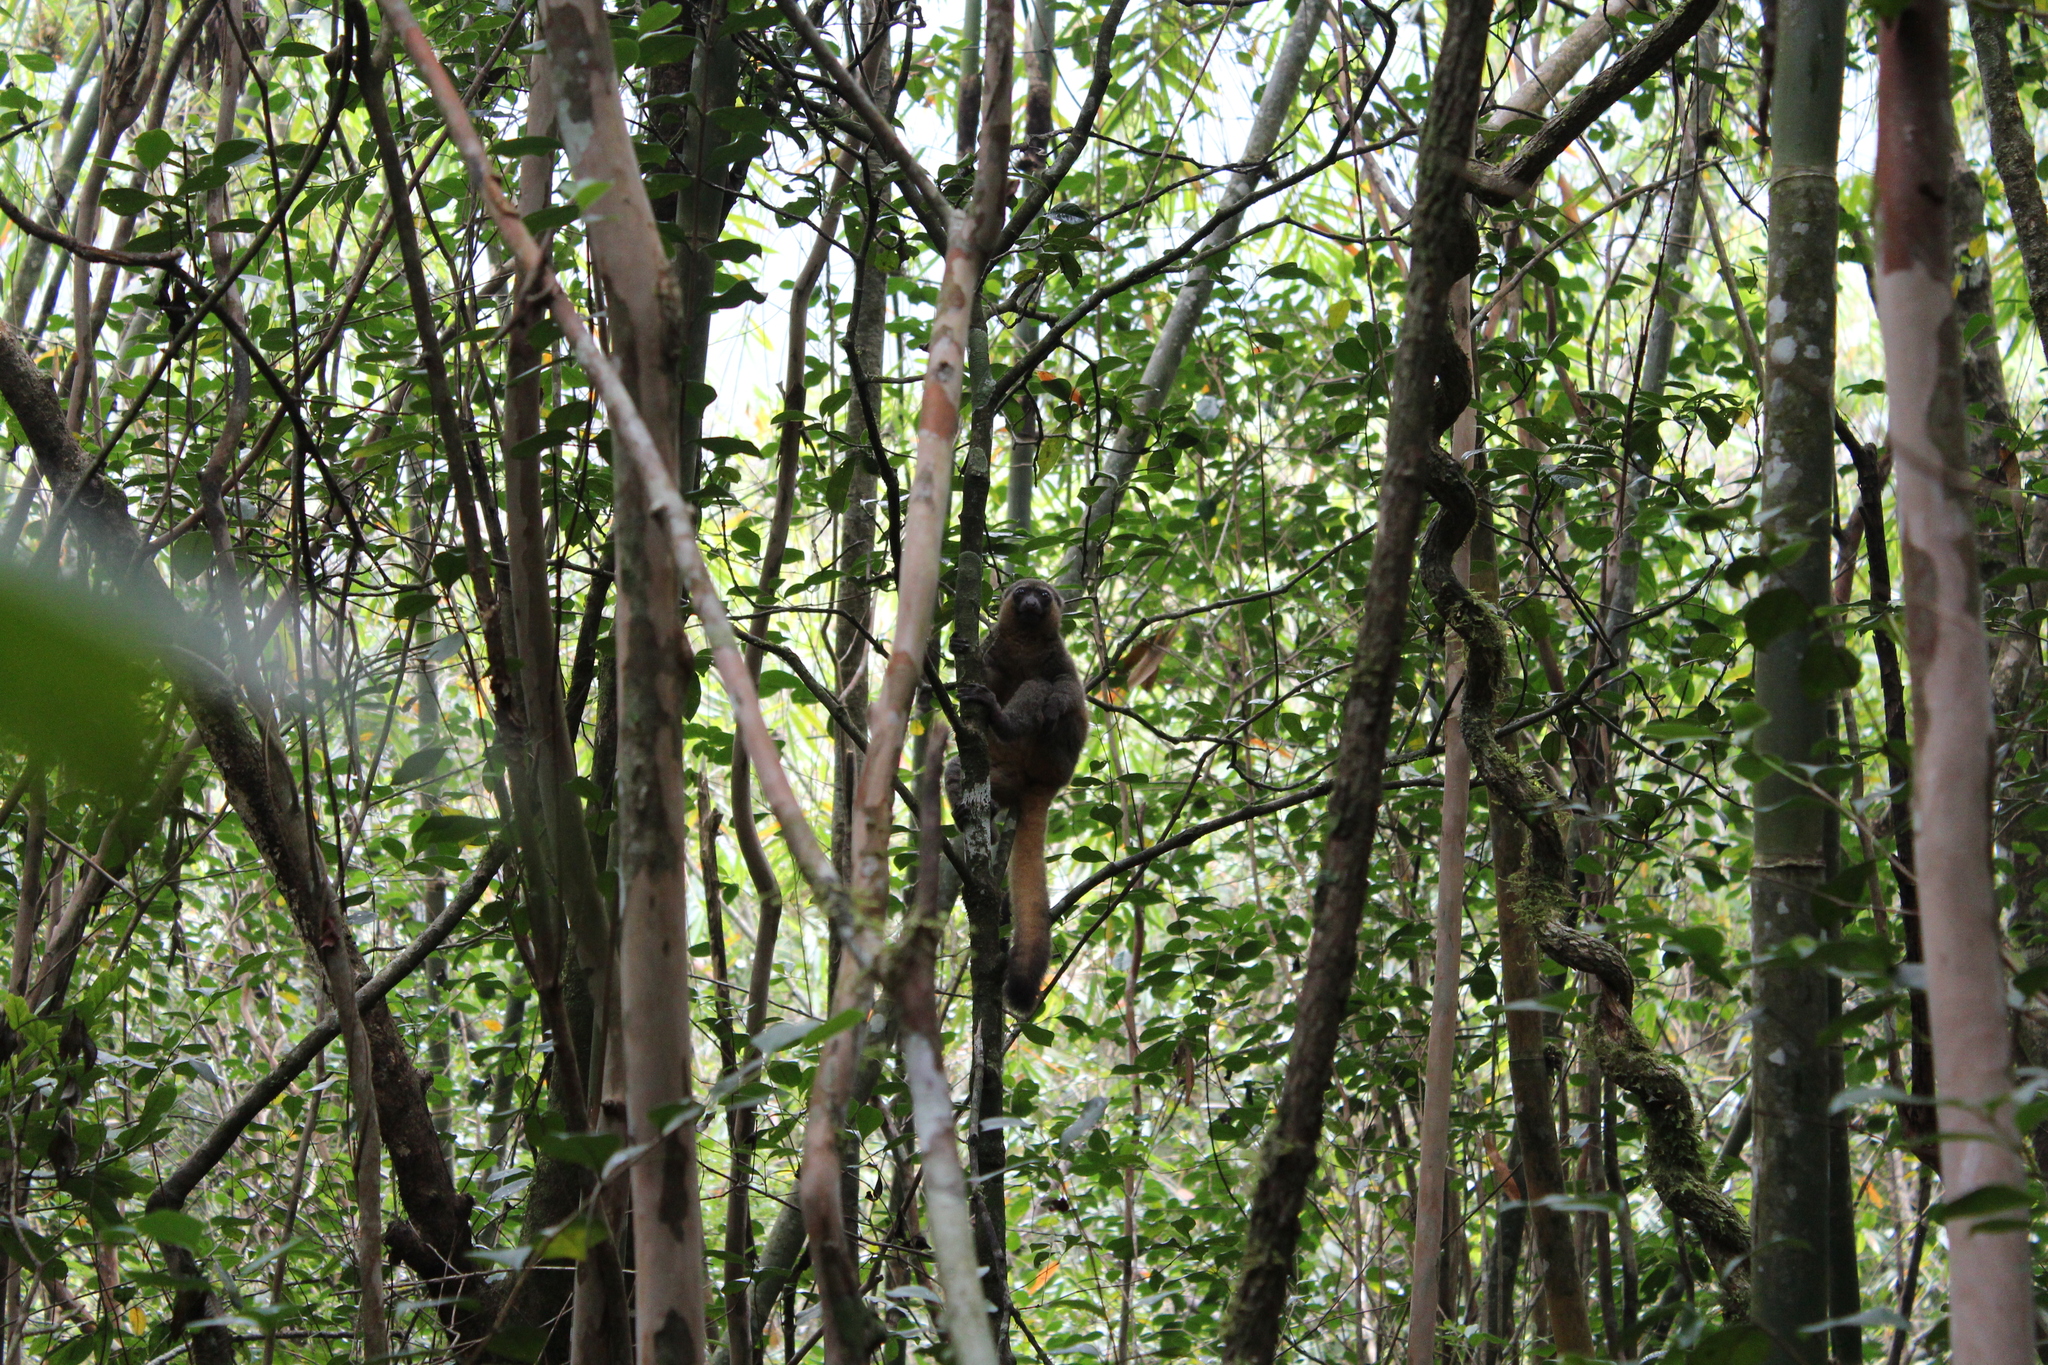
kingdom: Animalia
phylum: Chordata
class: Mammalia
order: Primates
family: Lemuridae
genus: Hapalemur
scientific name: Hapalemur aureus
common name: Golden bamboo lemur
